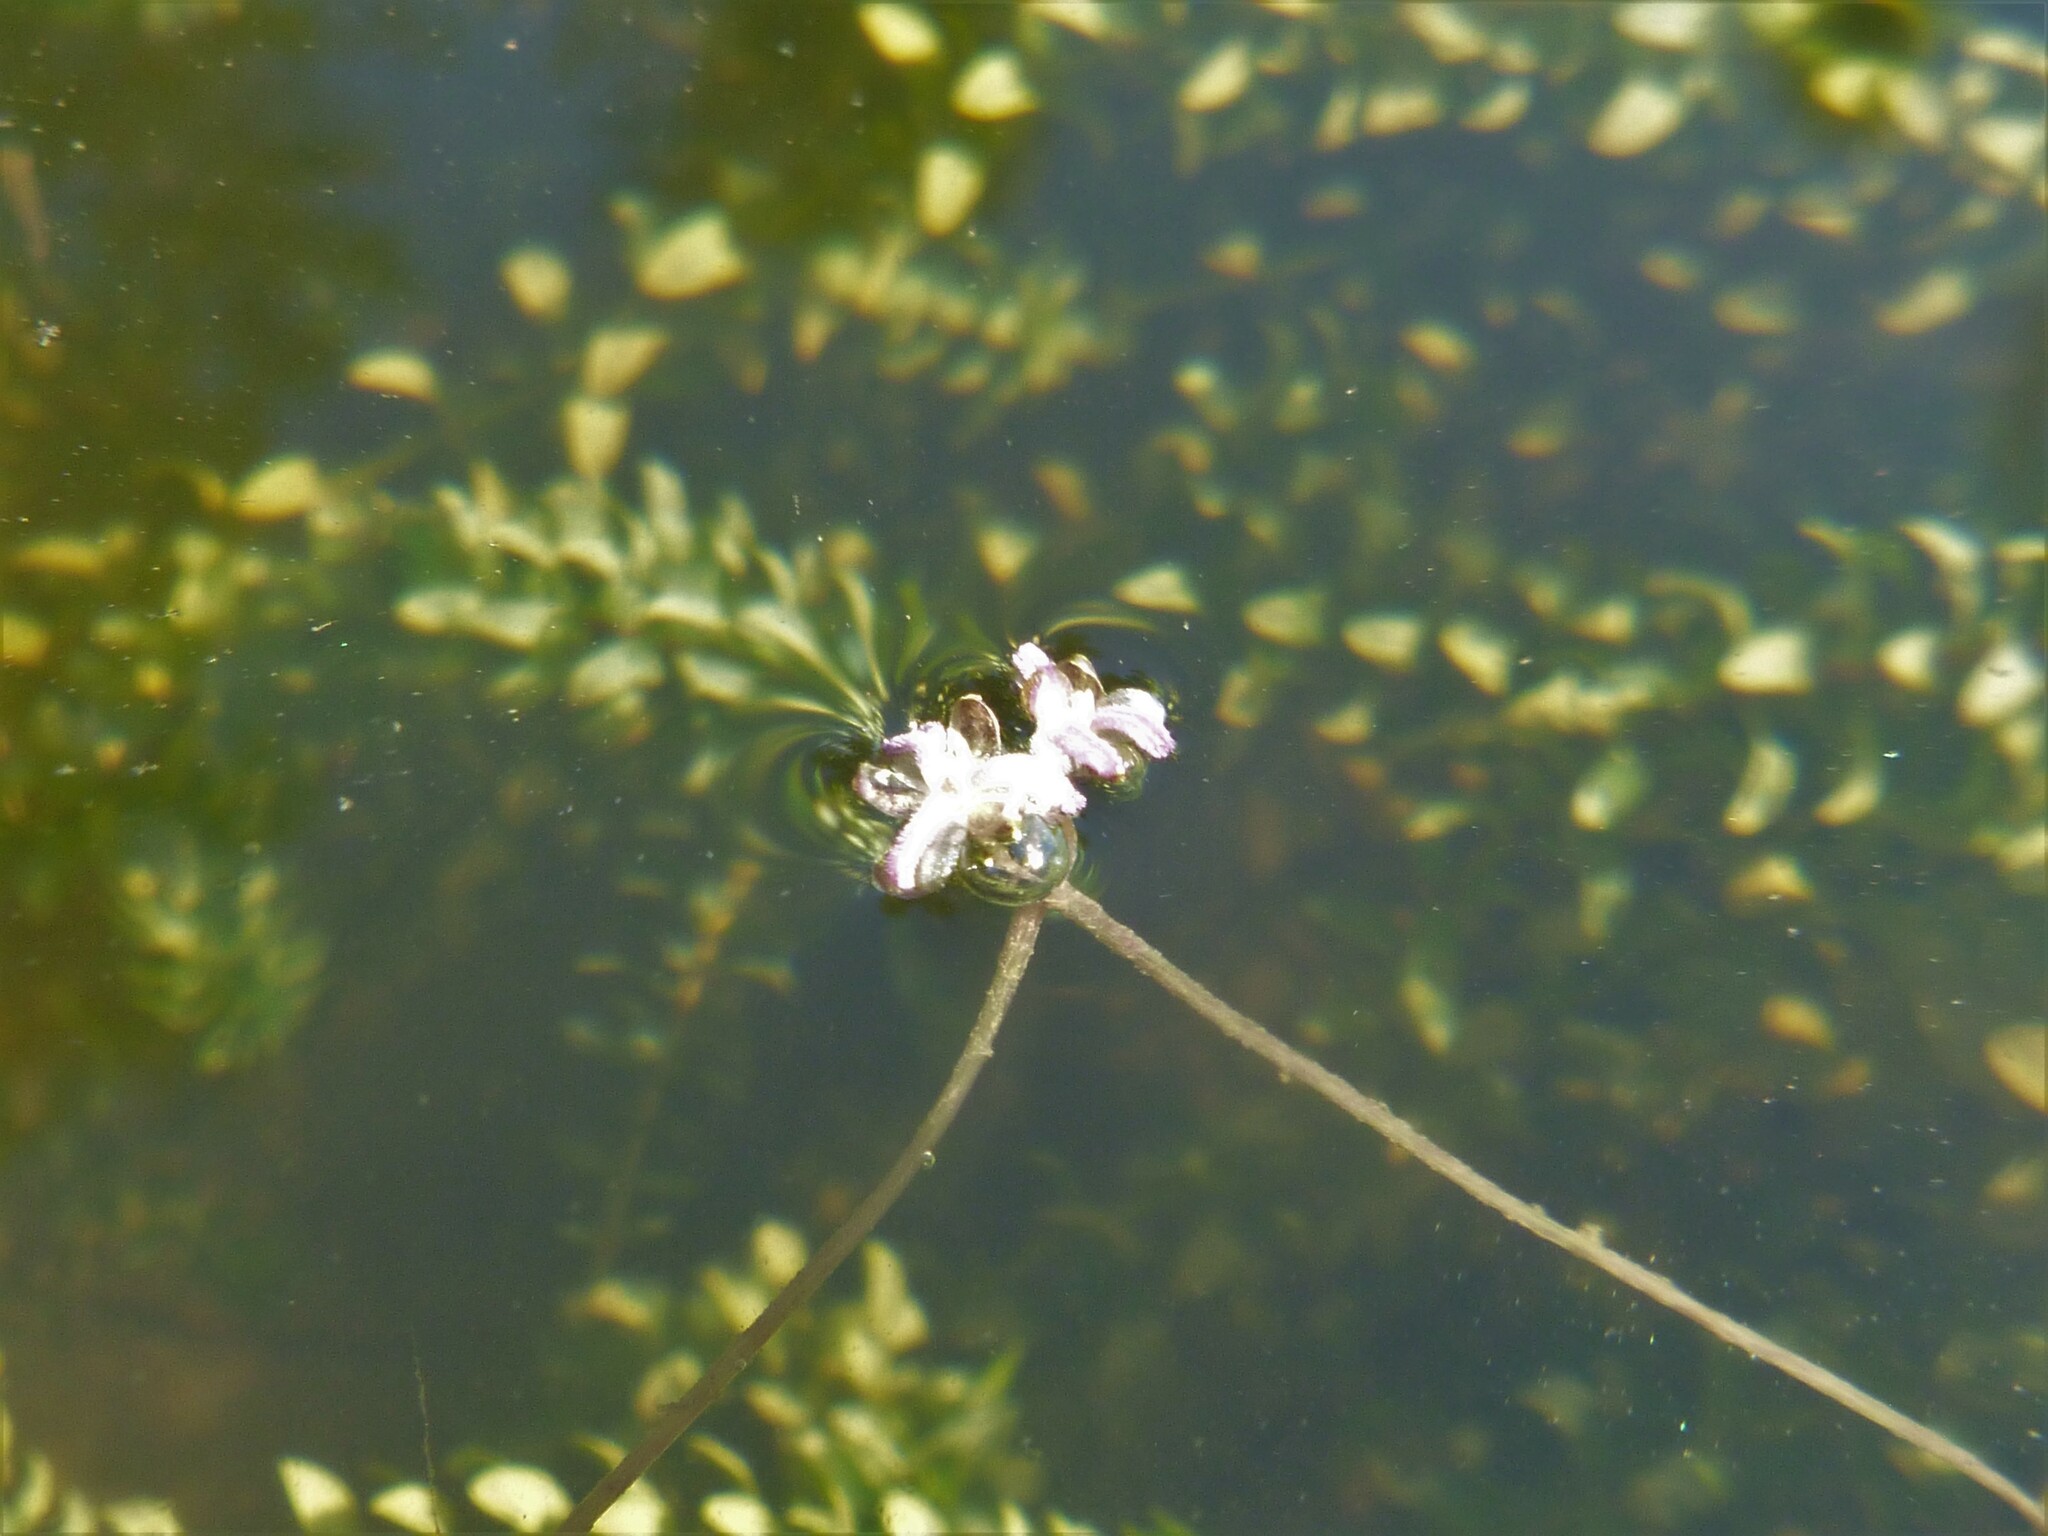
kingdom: Plantae
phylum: Tracheophyta
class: Liliopsida
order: Alismatales
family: Hydrocharitaceae
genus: Elodea
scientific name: Elodea canadensis
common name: Canadian waterweed
